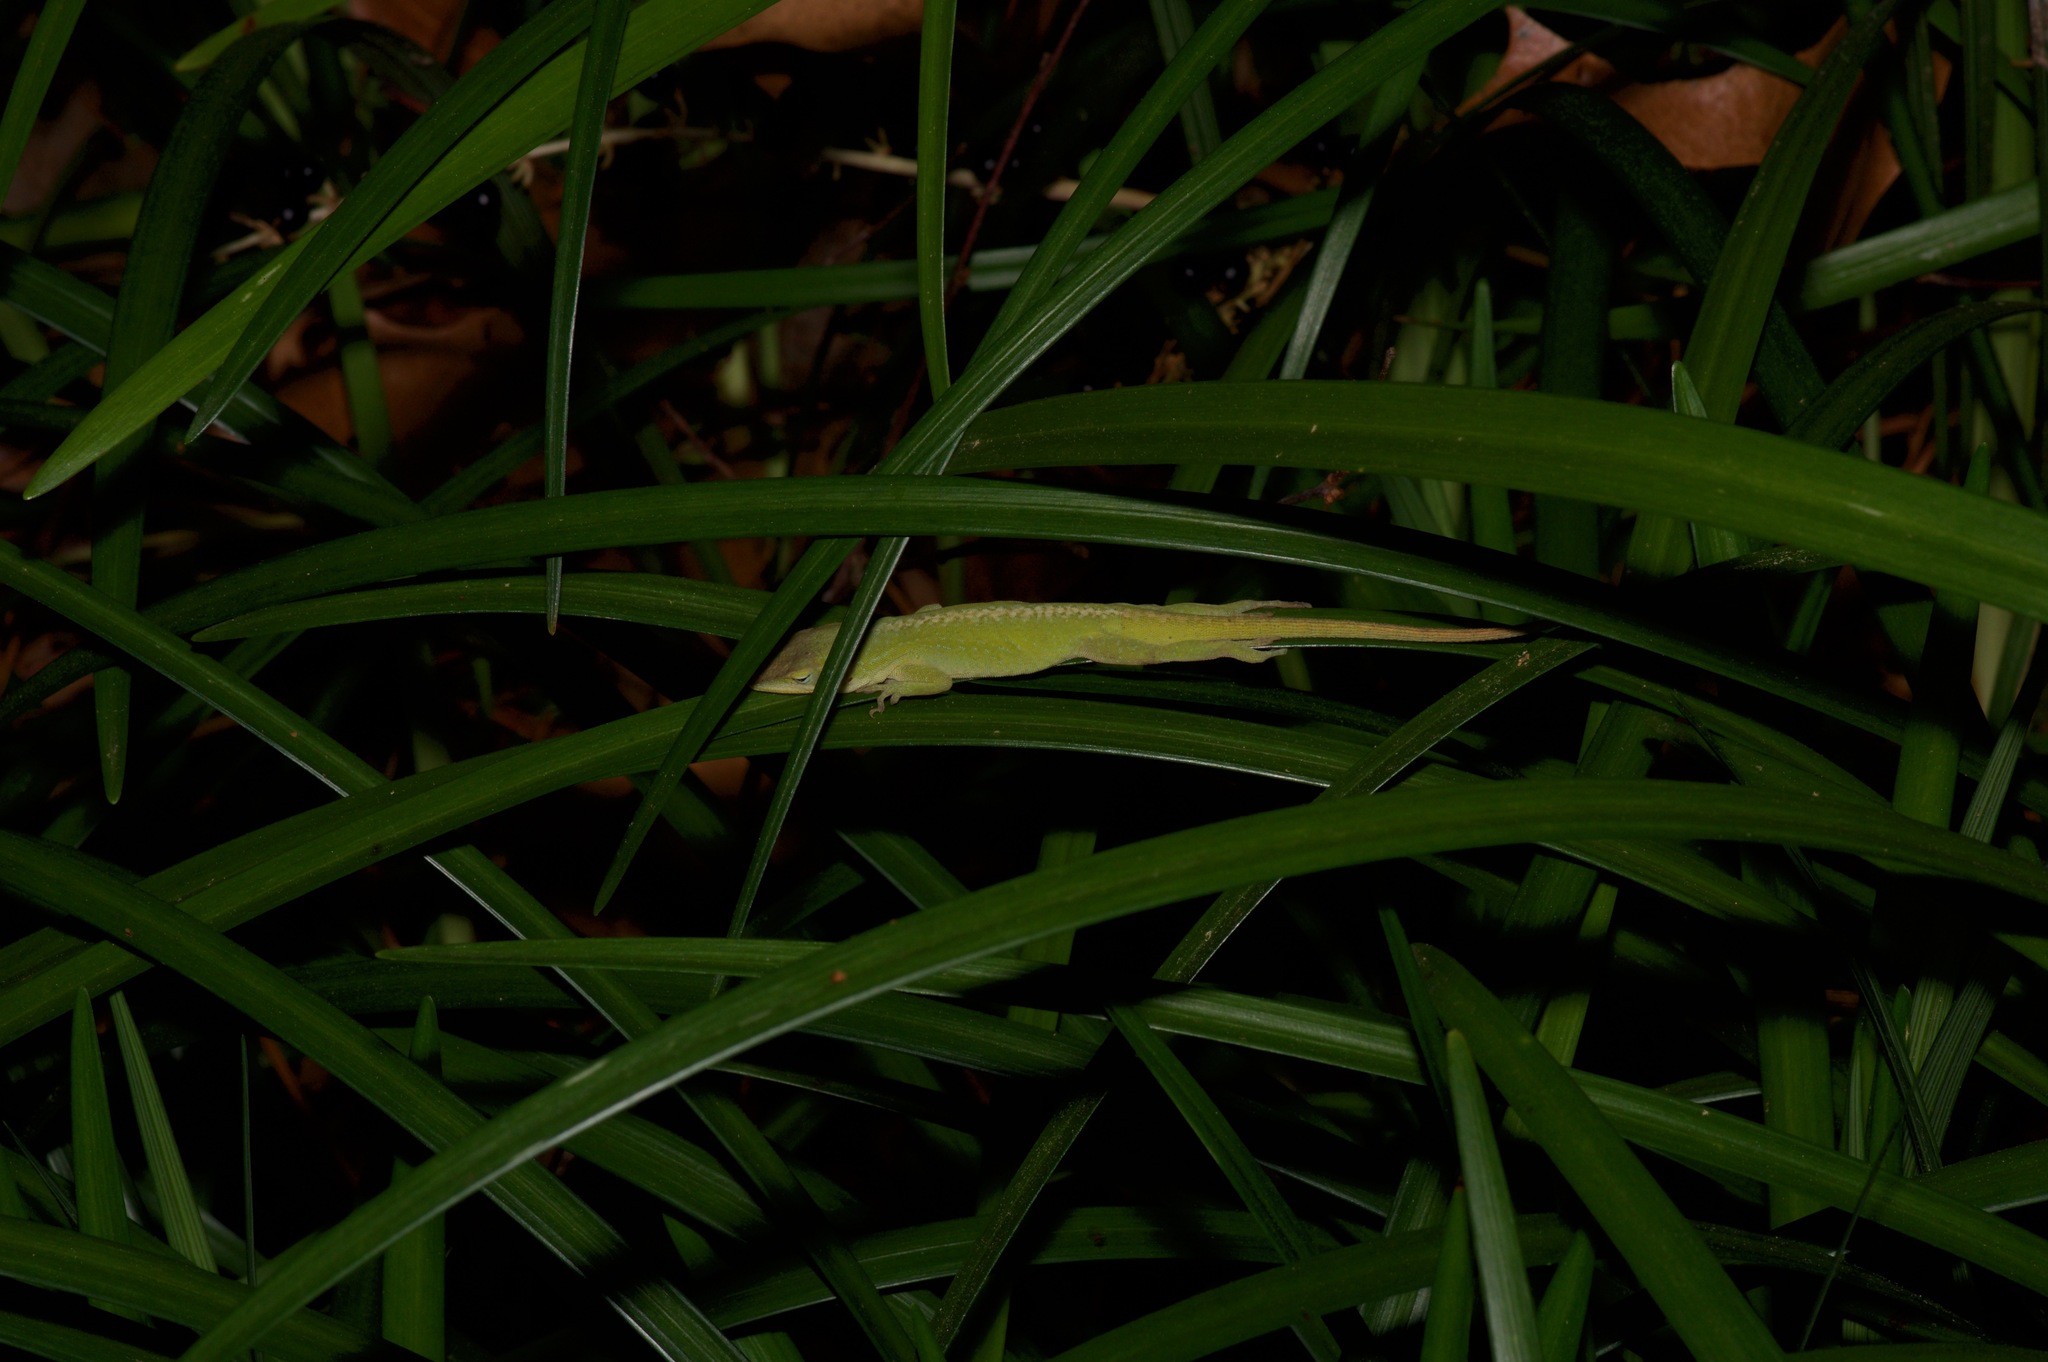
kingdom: Animalia
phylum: Chordata
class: Squamata
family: Dactyloidae
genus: Anolis
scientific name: Anolis carolinensis
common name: Green anole
